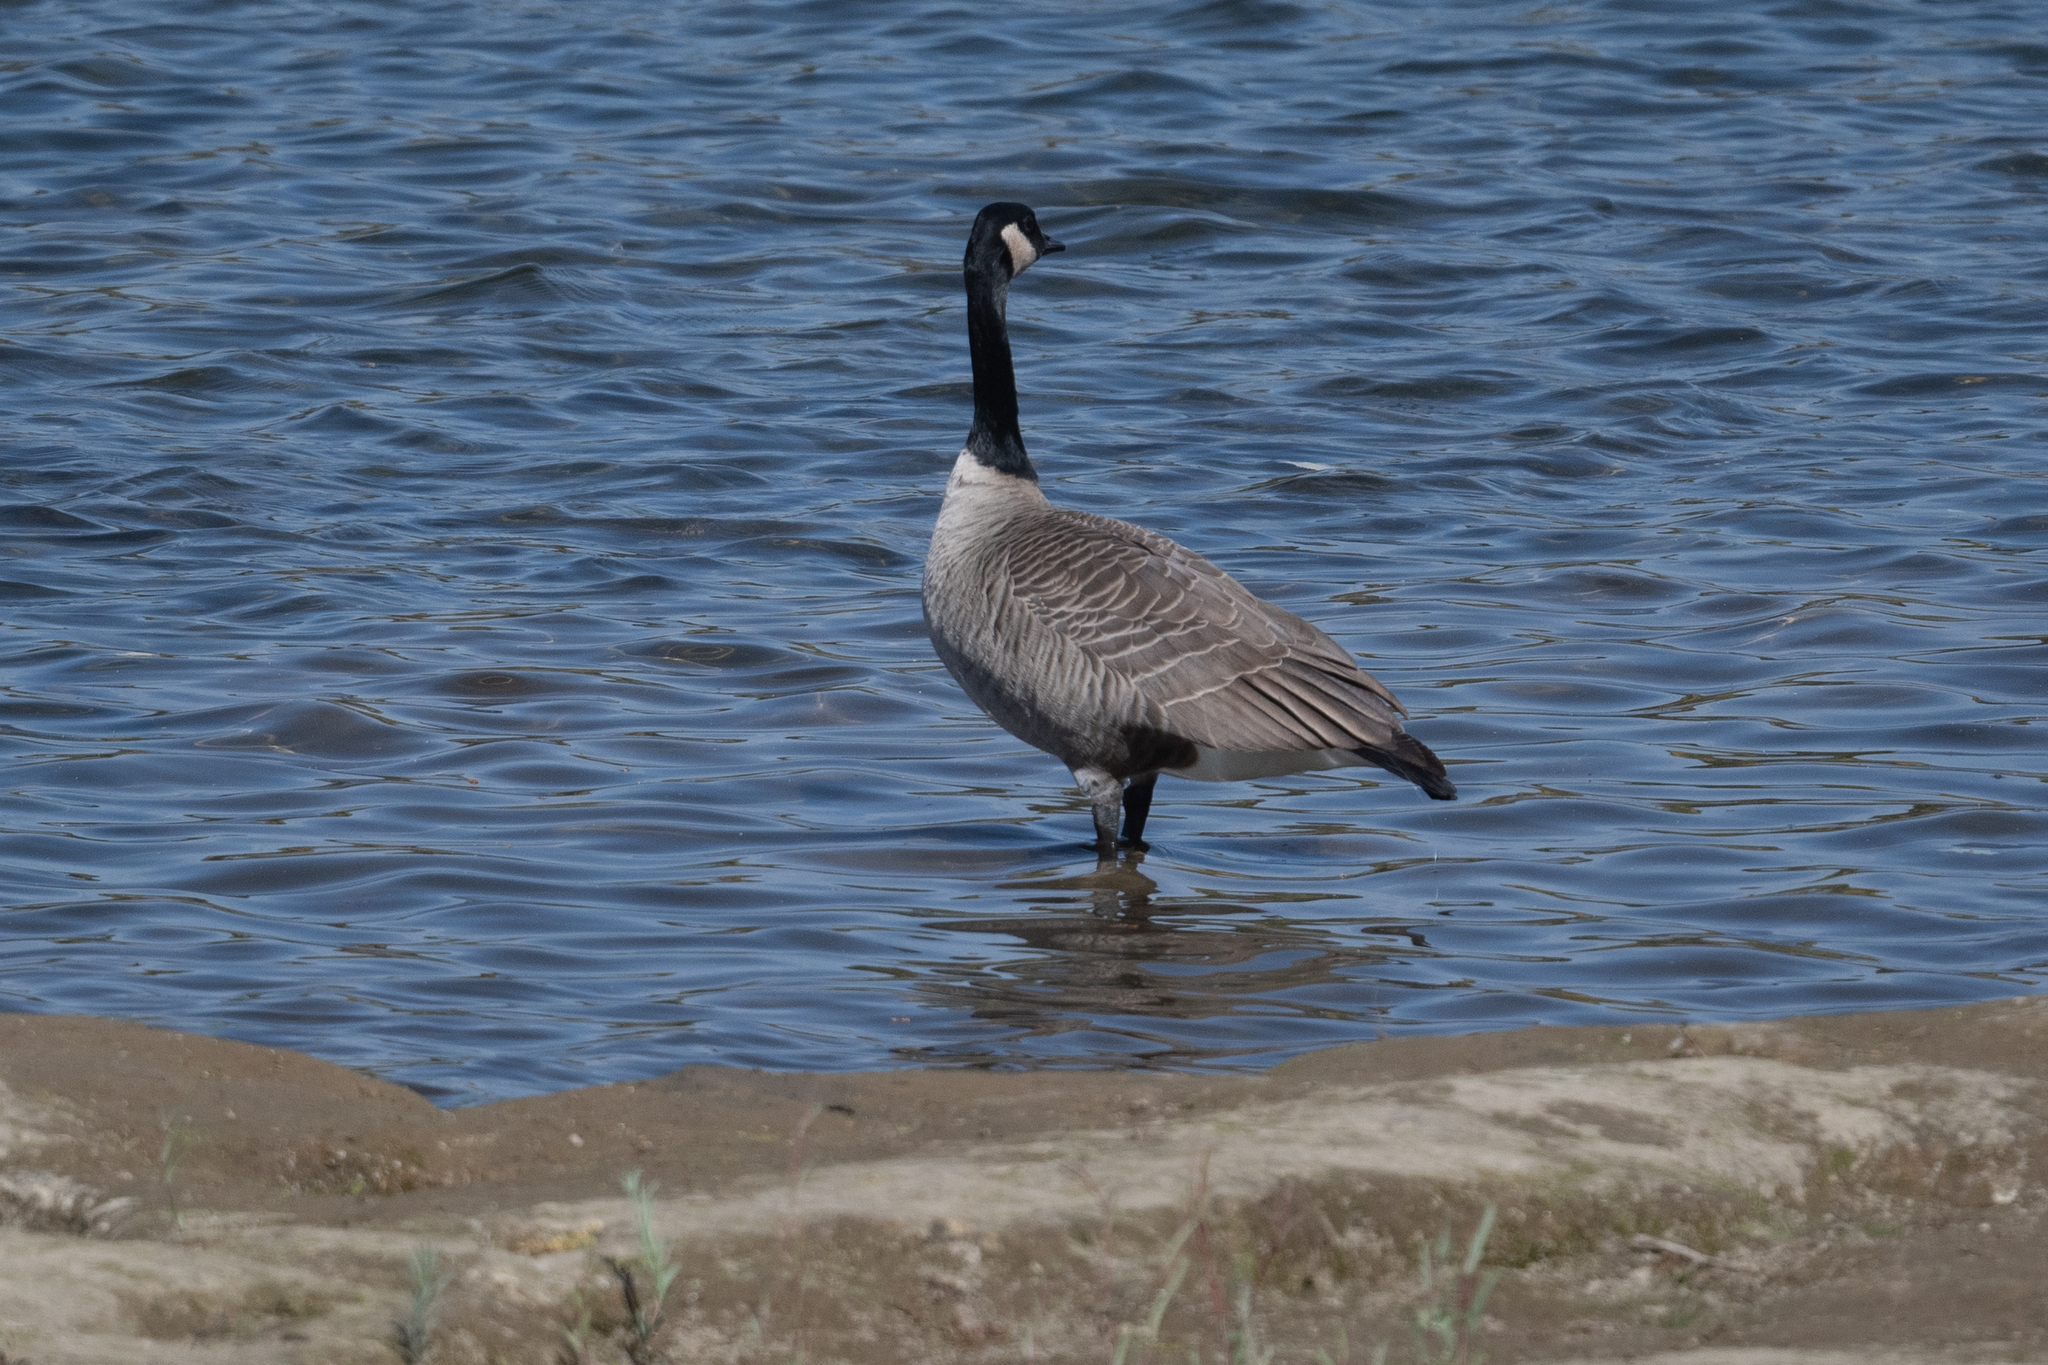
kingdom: Animalia
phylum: Chordata
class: Aves
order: Anseriformes
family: Anatidae
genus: Branta
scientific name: Branta canadensis
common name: Canada goose
